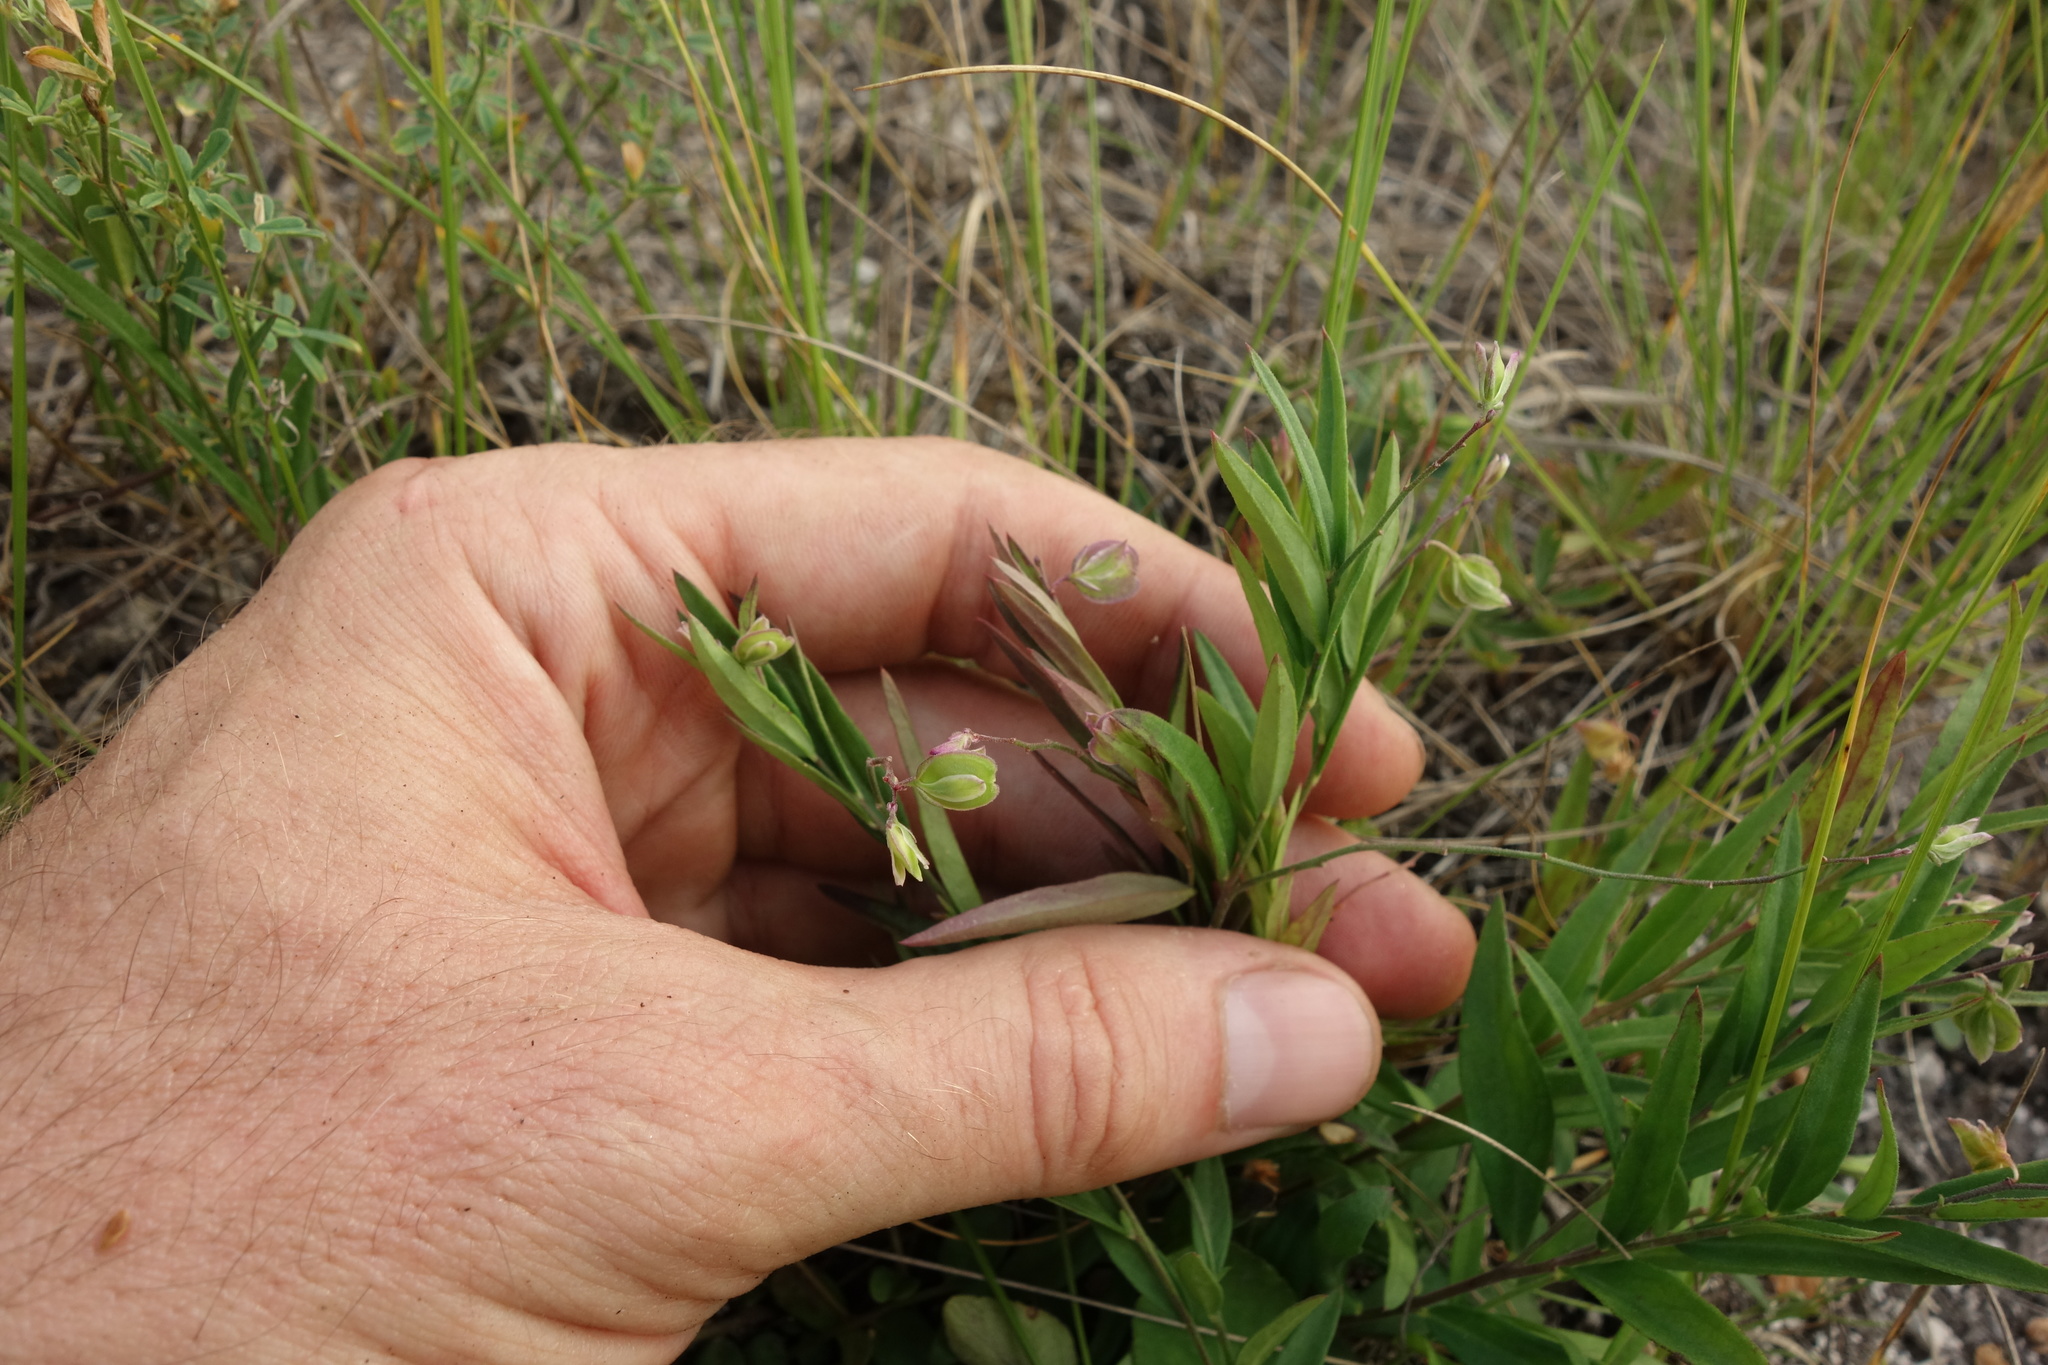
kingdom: Plantae
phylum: Tracheophyta
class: Magnoliopsida
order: Fabales
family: Polygalaceae
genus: Polygala
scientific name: Polygala sibirica
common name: Siberian polygala
